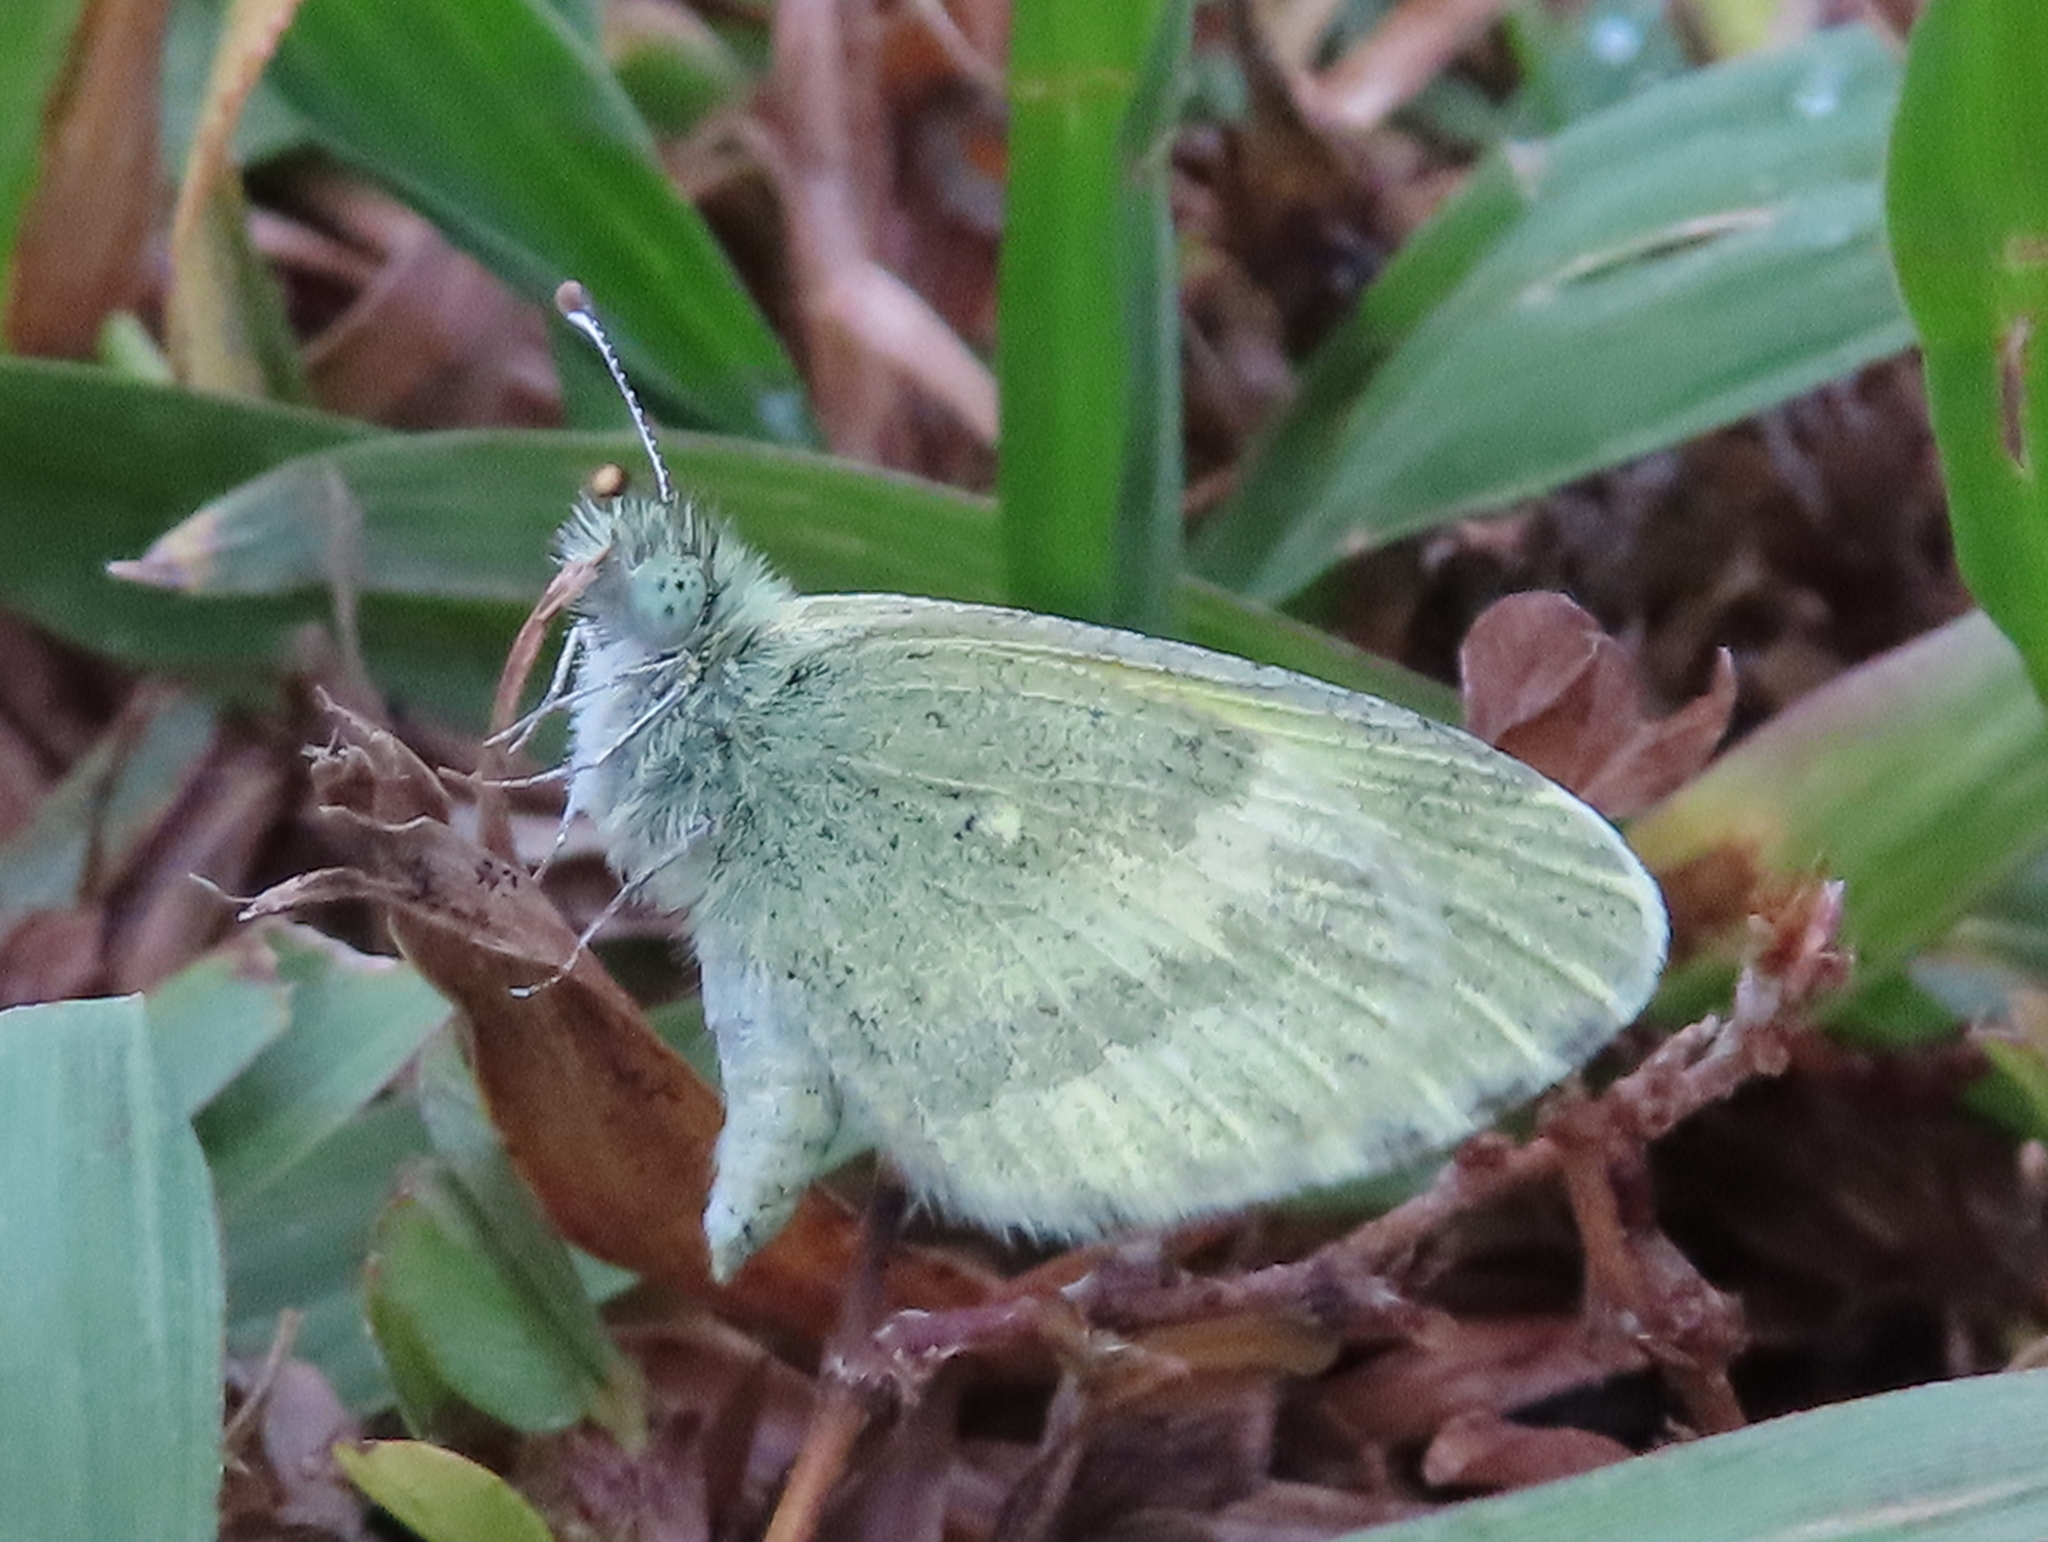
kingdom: Animalia
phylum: Arthropoda
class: Insecta
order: Lepidoptera
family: Pieridae
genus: Nathalis
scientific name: Nathalis iole
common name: Dainty sulphur
